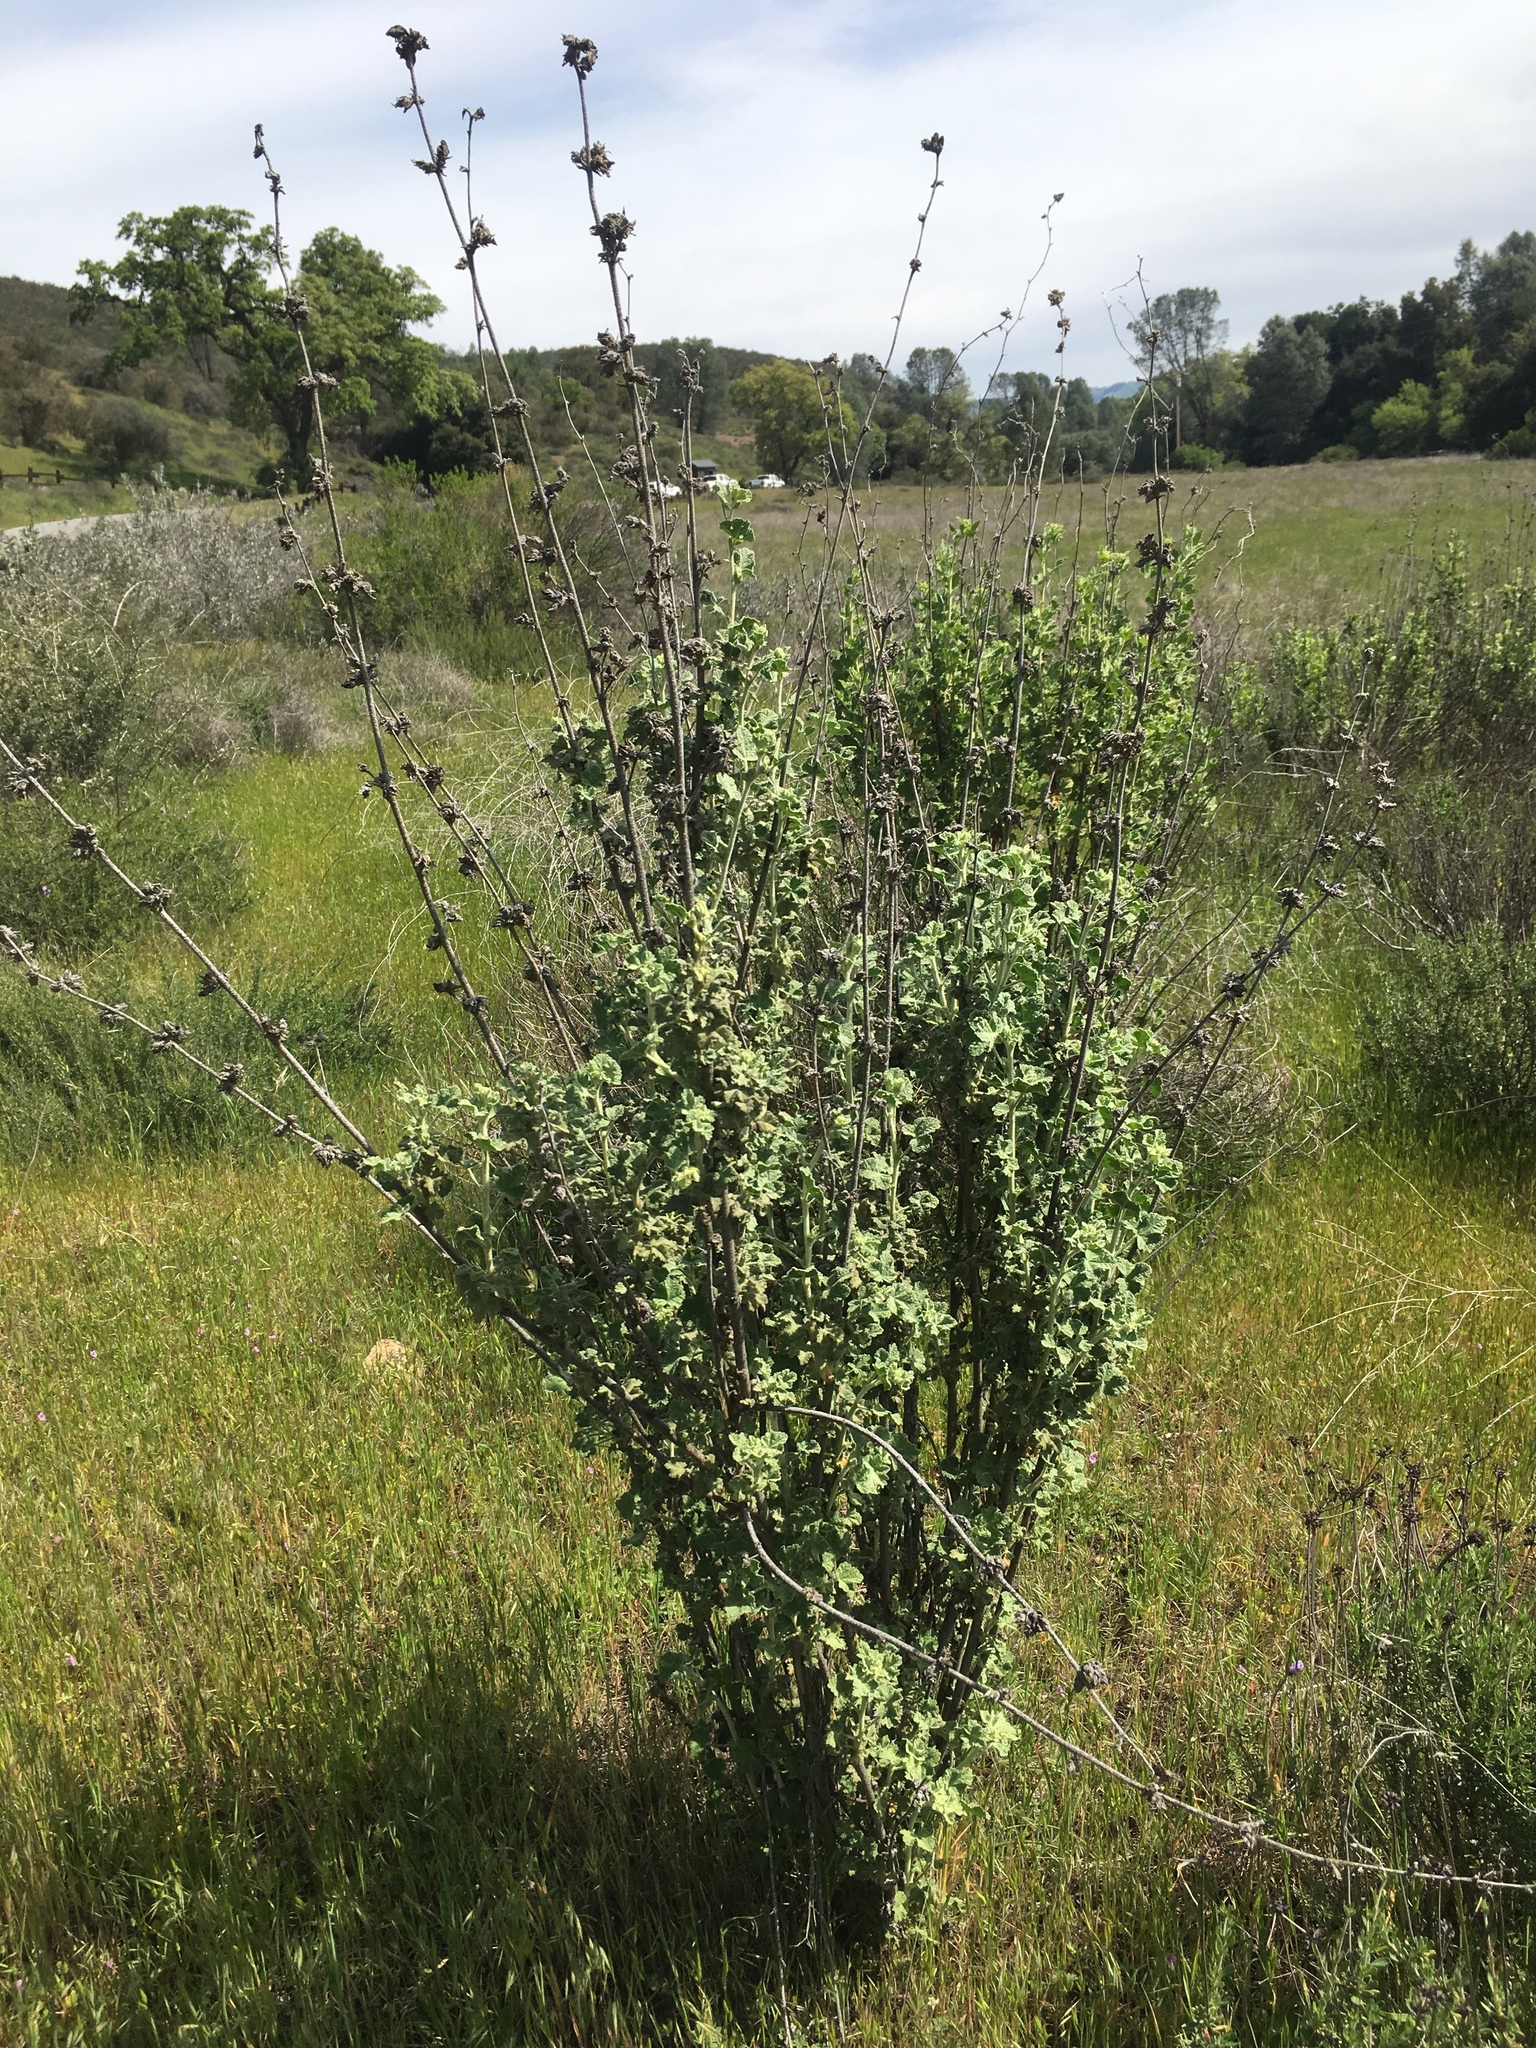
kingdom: Plantae
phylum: Tracheophyta
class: Magnoliopsida
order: Malvales
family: Malvaceae
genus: Malacothamnus
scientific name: Malacothamnus aboriginum
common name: Indian valley bush-mallow
